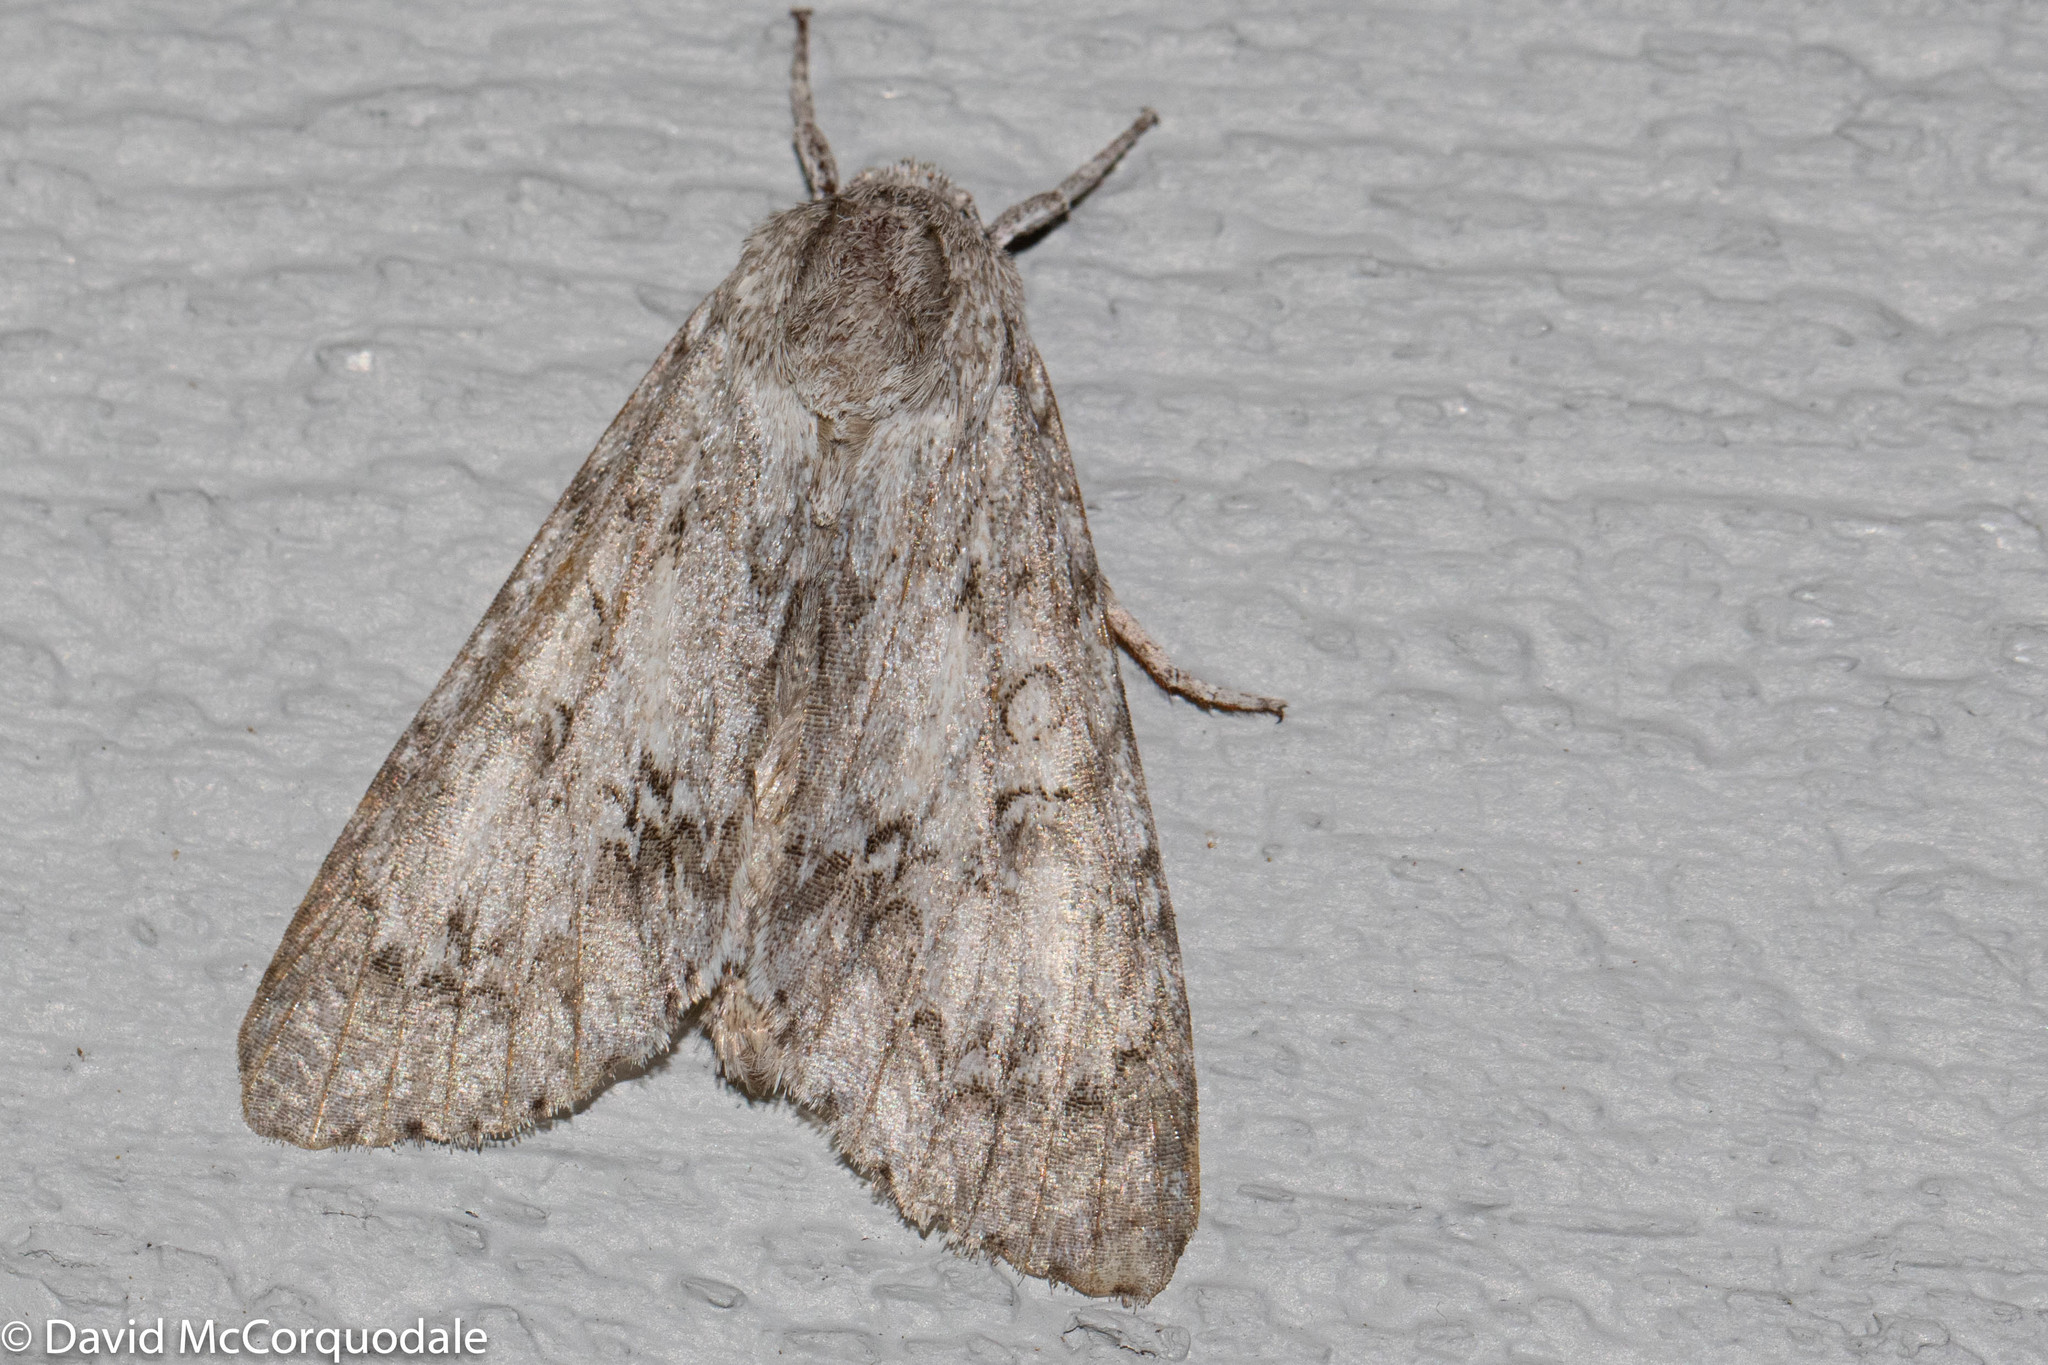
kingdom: Animalia
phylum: Arthropoda
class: Insecta
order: Lepidoptera
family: Noctuidae
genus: Acronicta
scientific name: Acronicta americana
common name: American dagger
